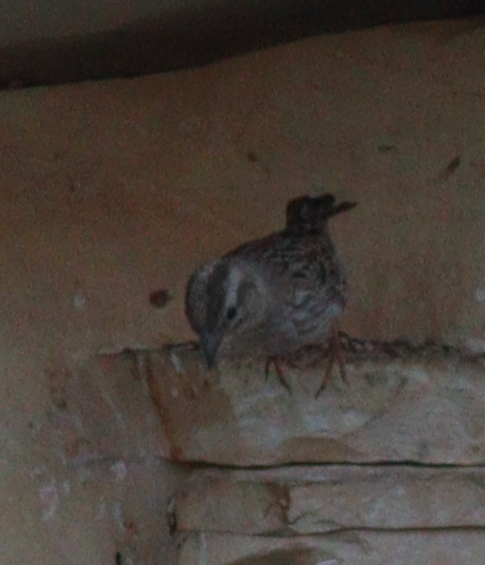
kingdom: Animalia
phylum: Chordata
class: Aves
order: Passeriformes
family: Passeridae
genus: Petronia
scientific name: Petronia petronia
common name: Rock sparrow
